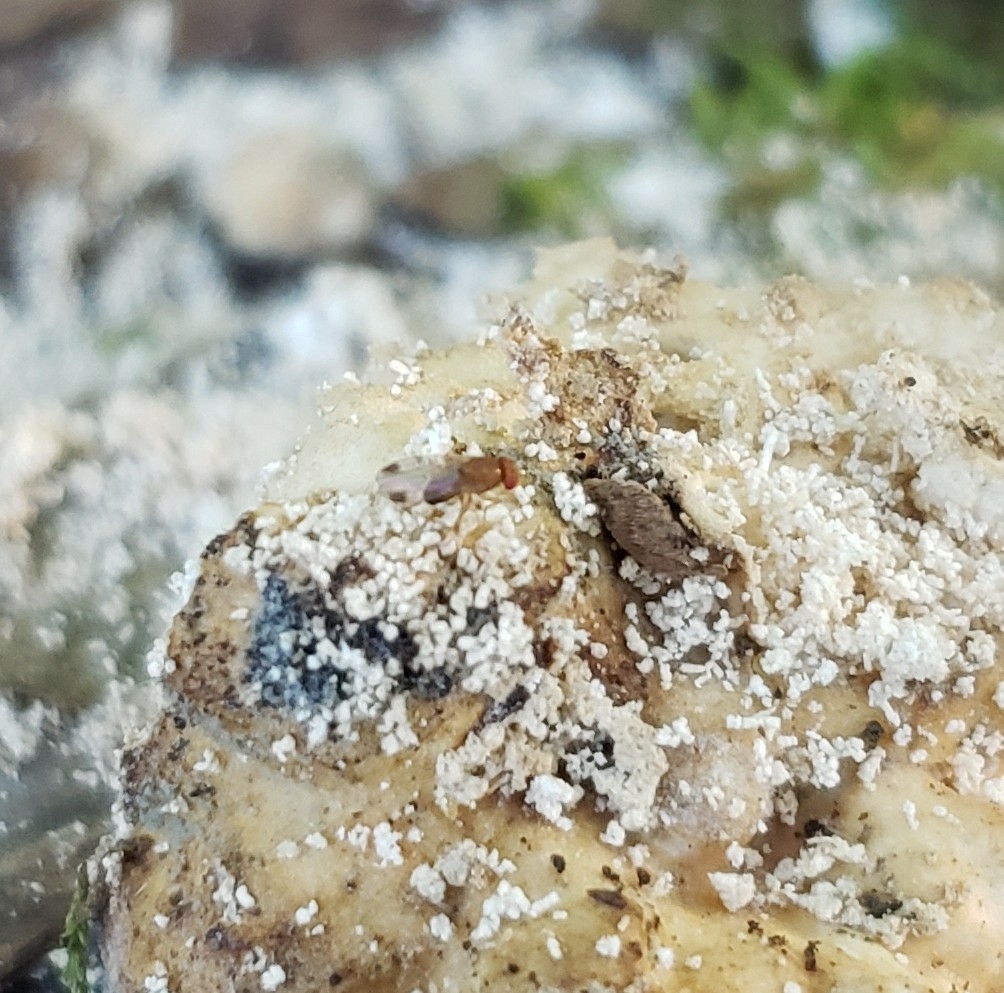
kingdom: Animalia
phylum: Arthropoda
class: Insecta
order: Diptera
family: Drosophilidae
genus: Drosophila
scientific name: Drosophila suzukii
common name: Spotted-wing drosophila
